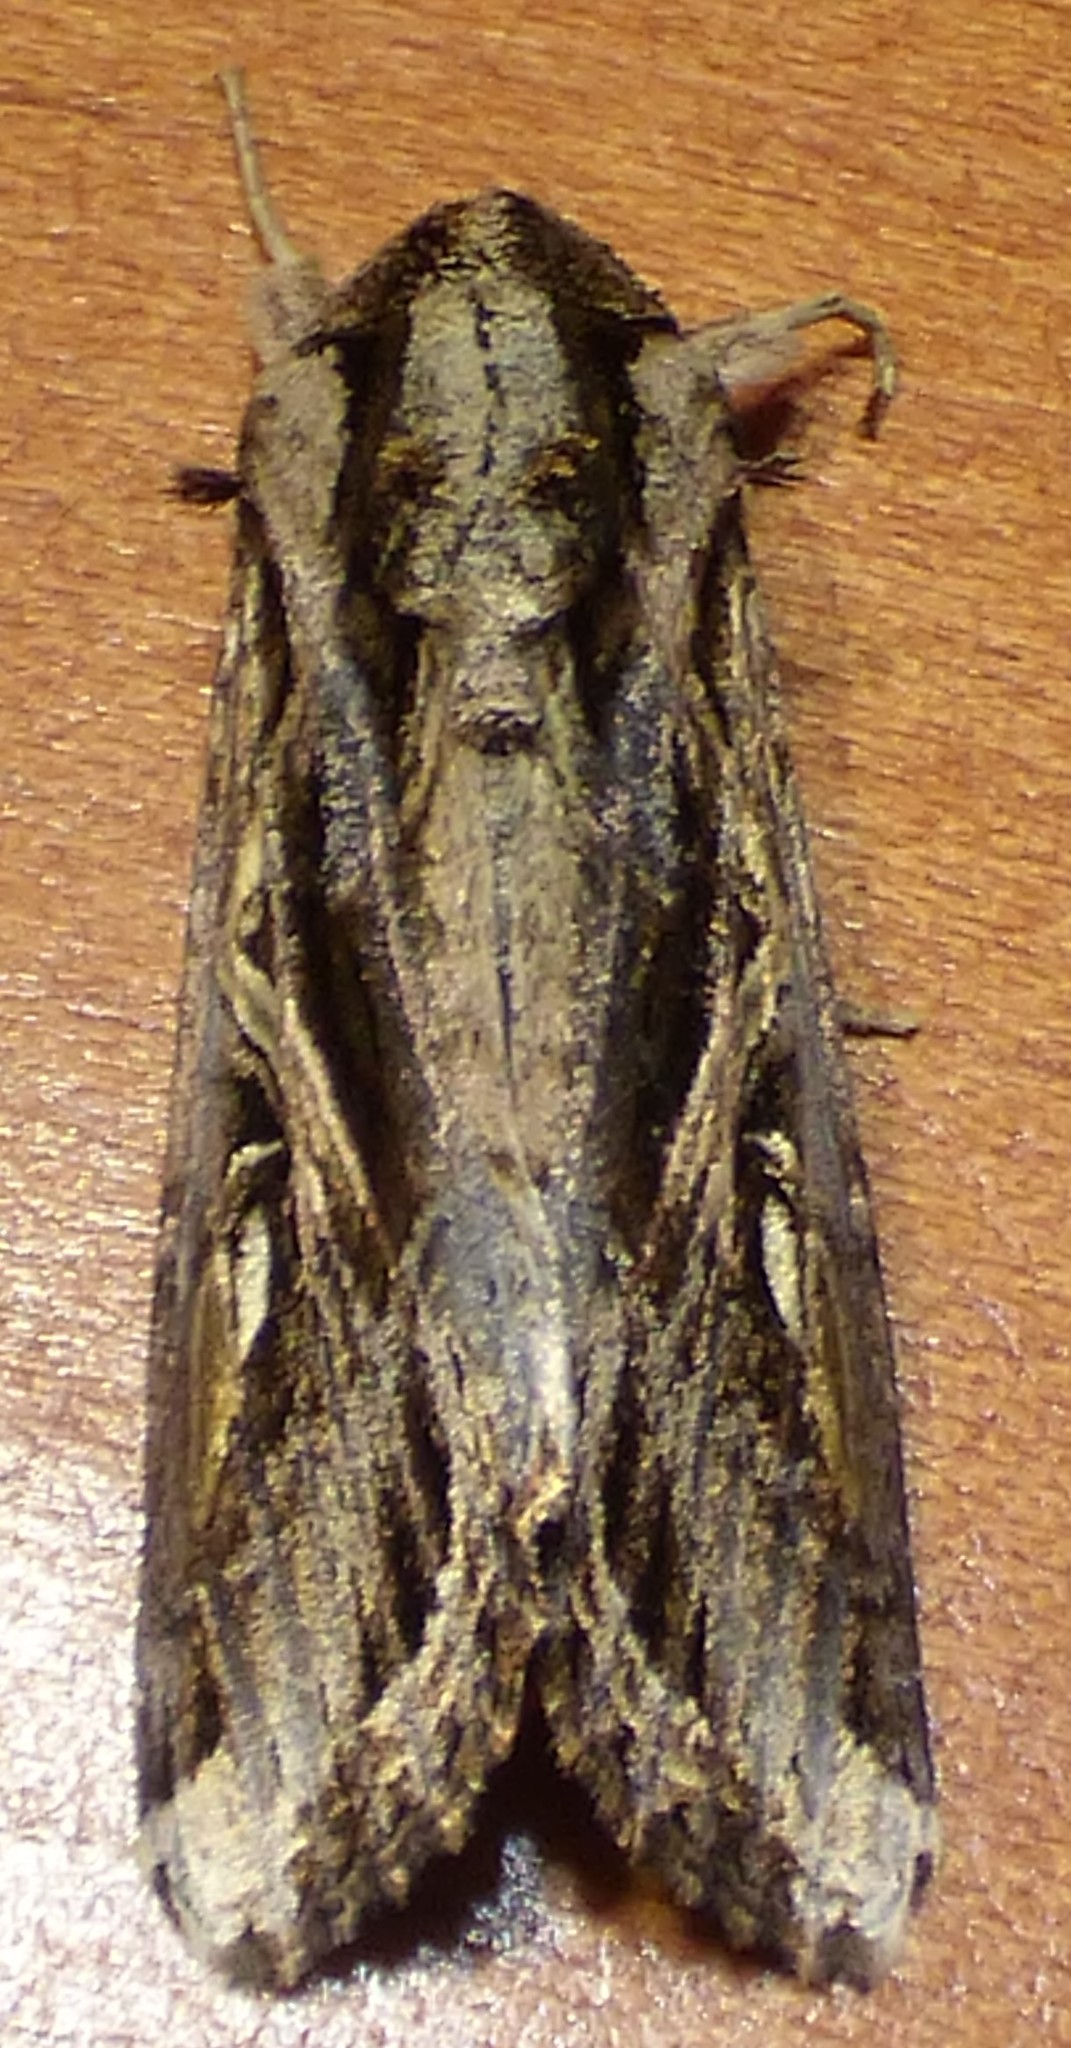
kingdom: Animalia
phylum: Arthropoda
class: Insecta
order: Lepidoptera
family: Noctuidae
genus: Spodoptera
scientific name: Spodoptera dolichos
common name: Sweetpotato armyworm
